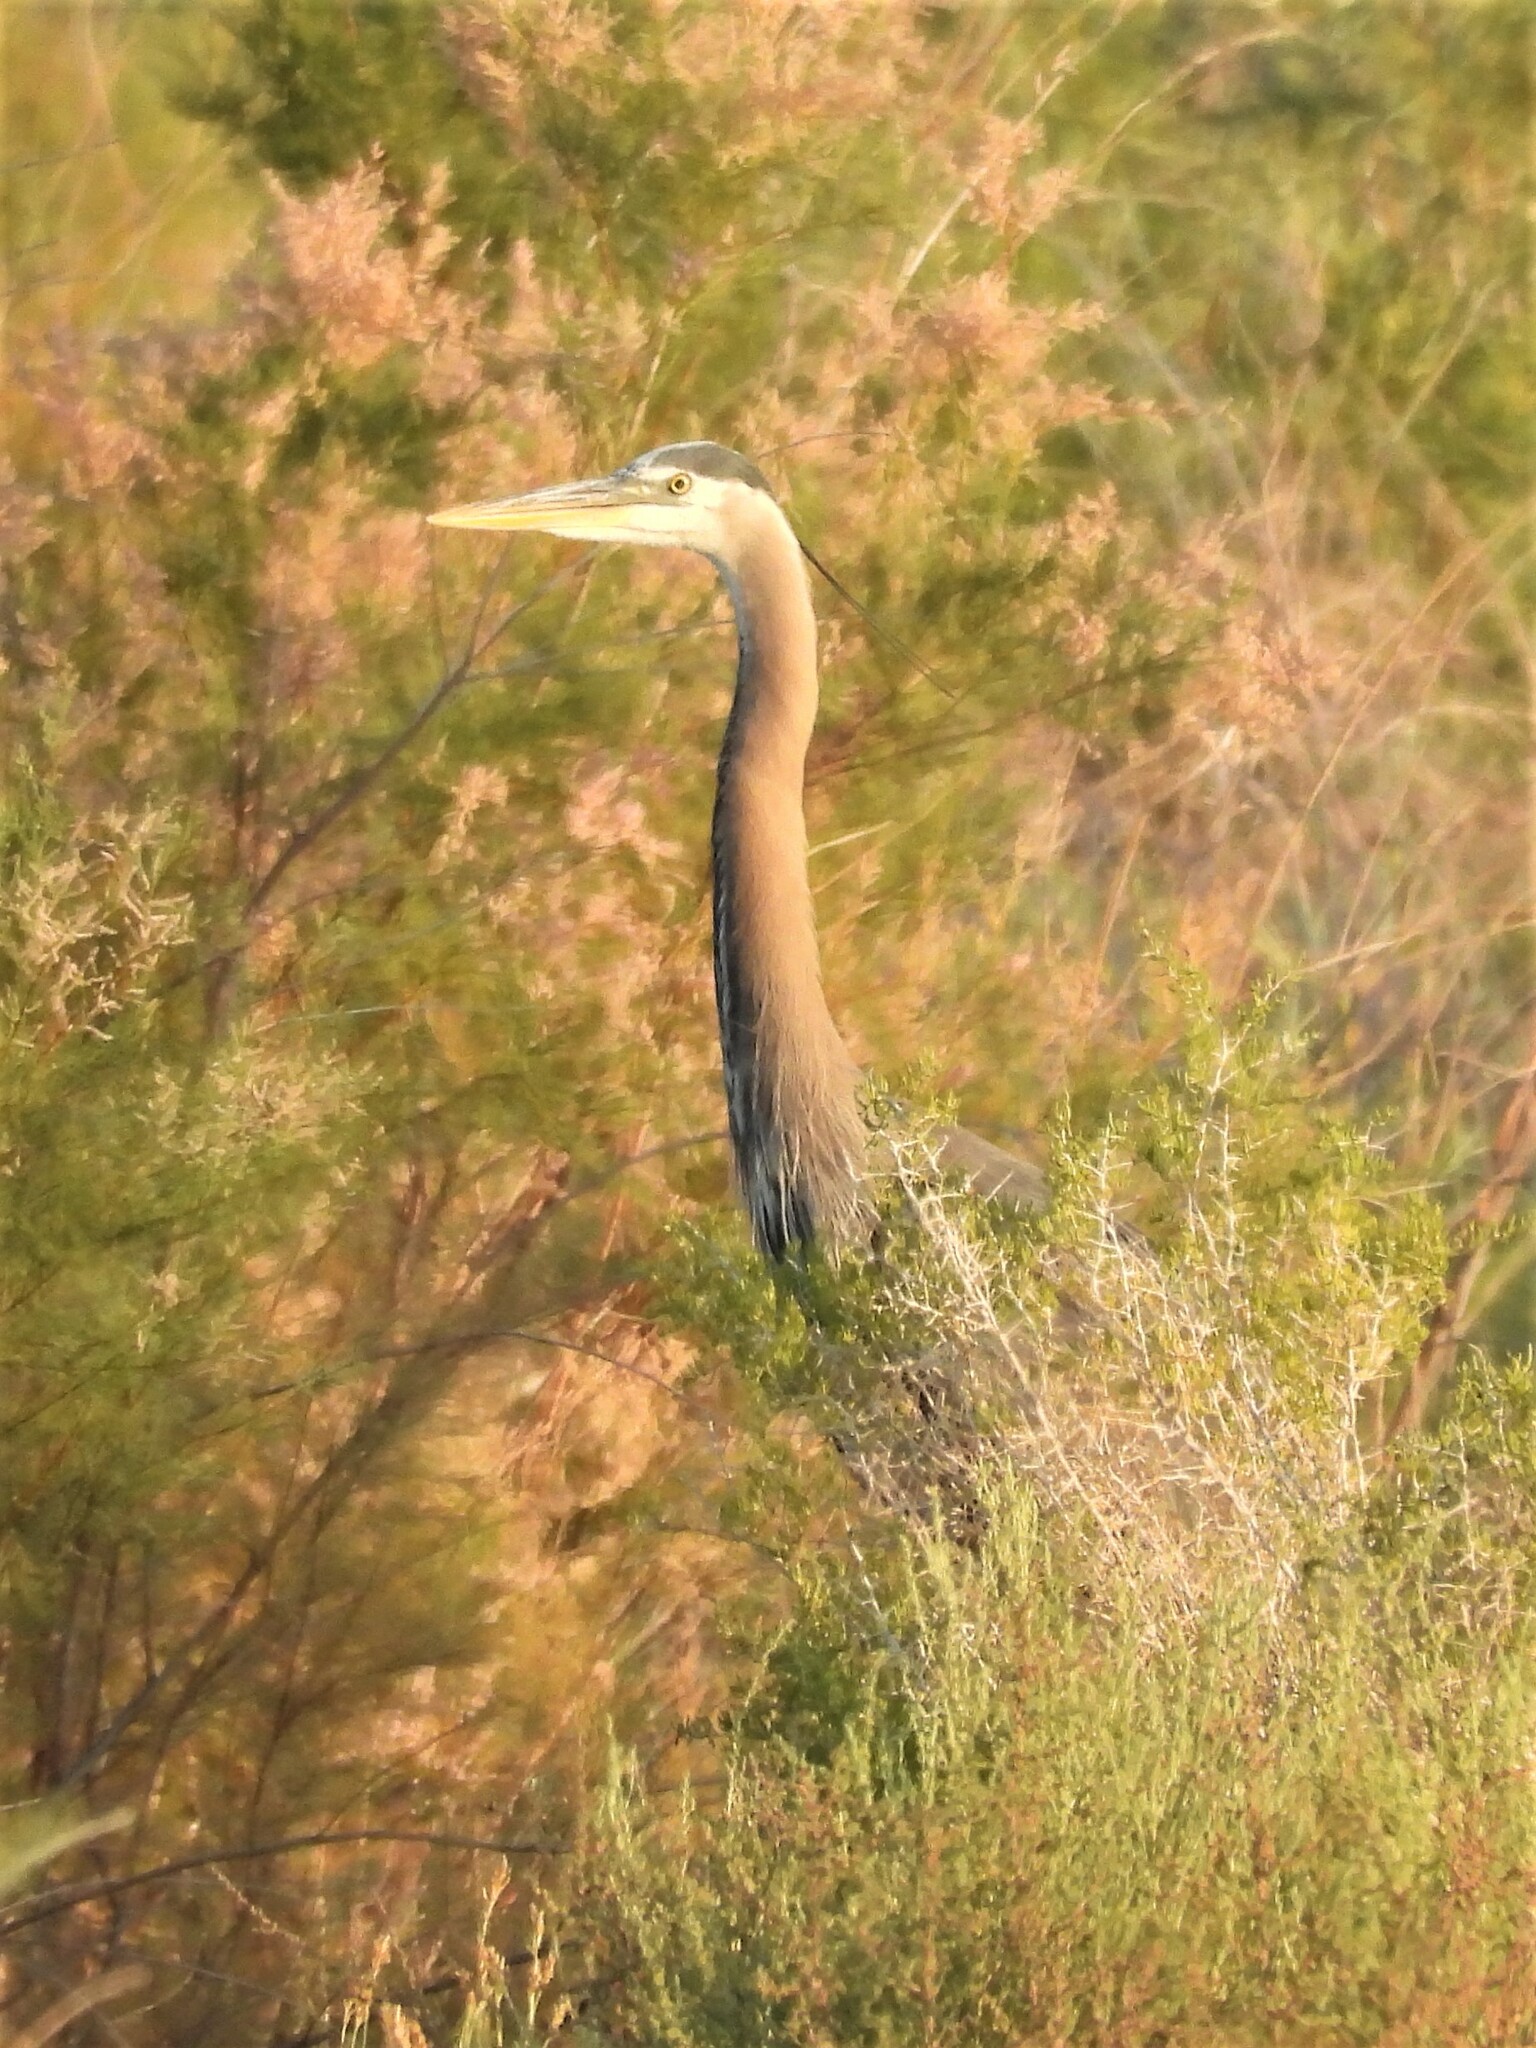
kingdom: Animalia
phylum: Chordata
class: Aves
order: Pelecaniformes
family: Ardeidae
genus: Ardea
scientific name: Ardea herodias
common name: Great blue heron
